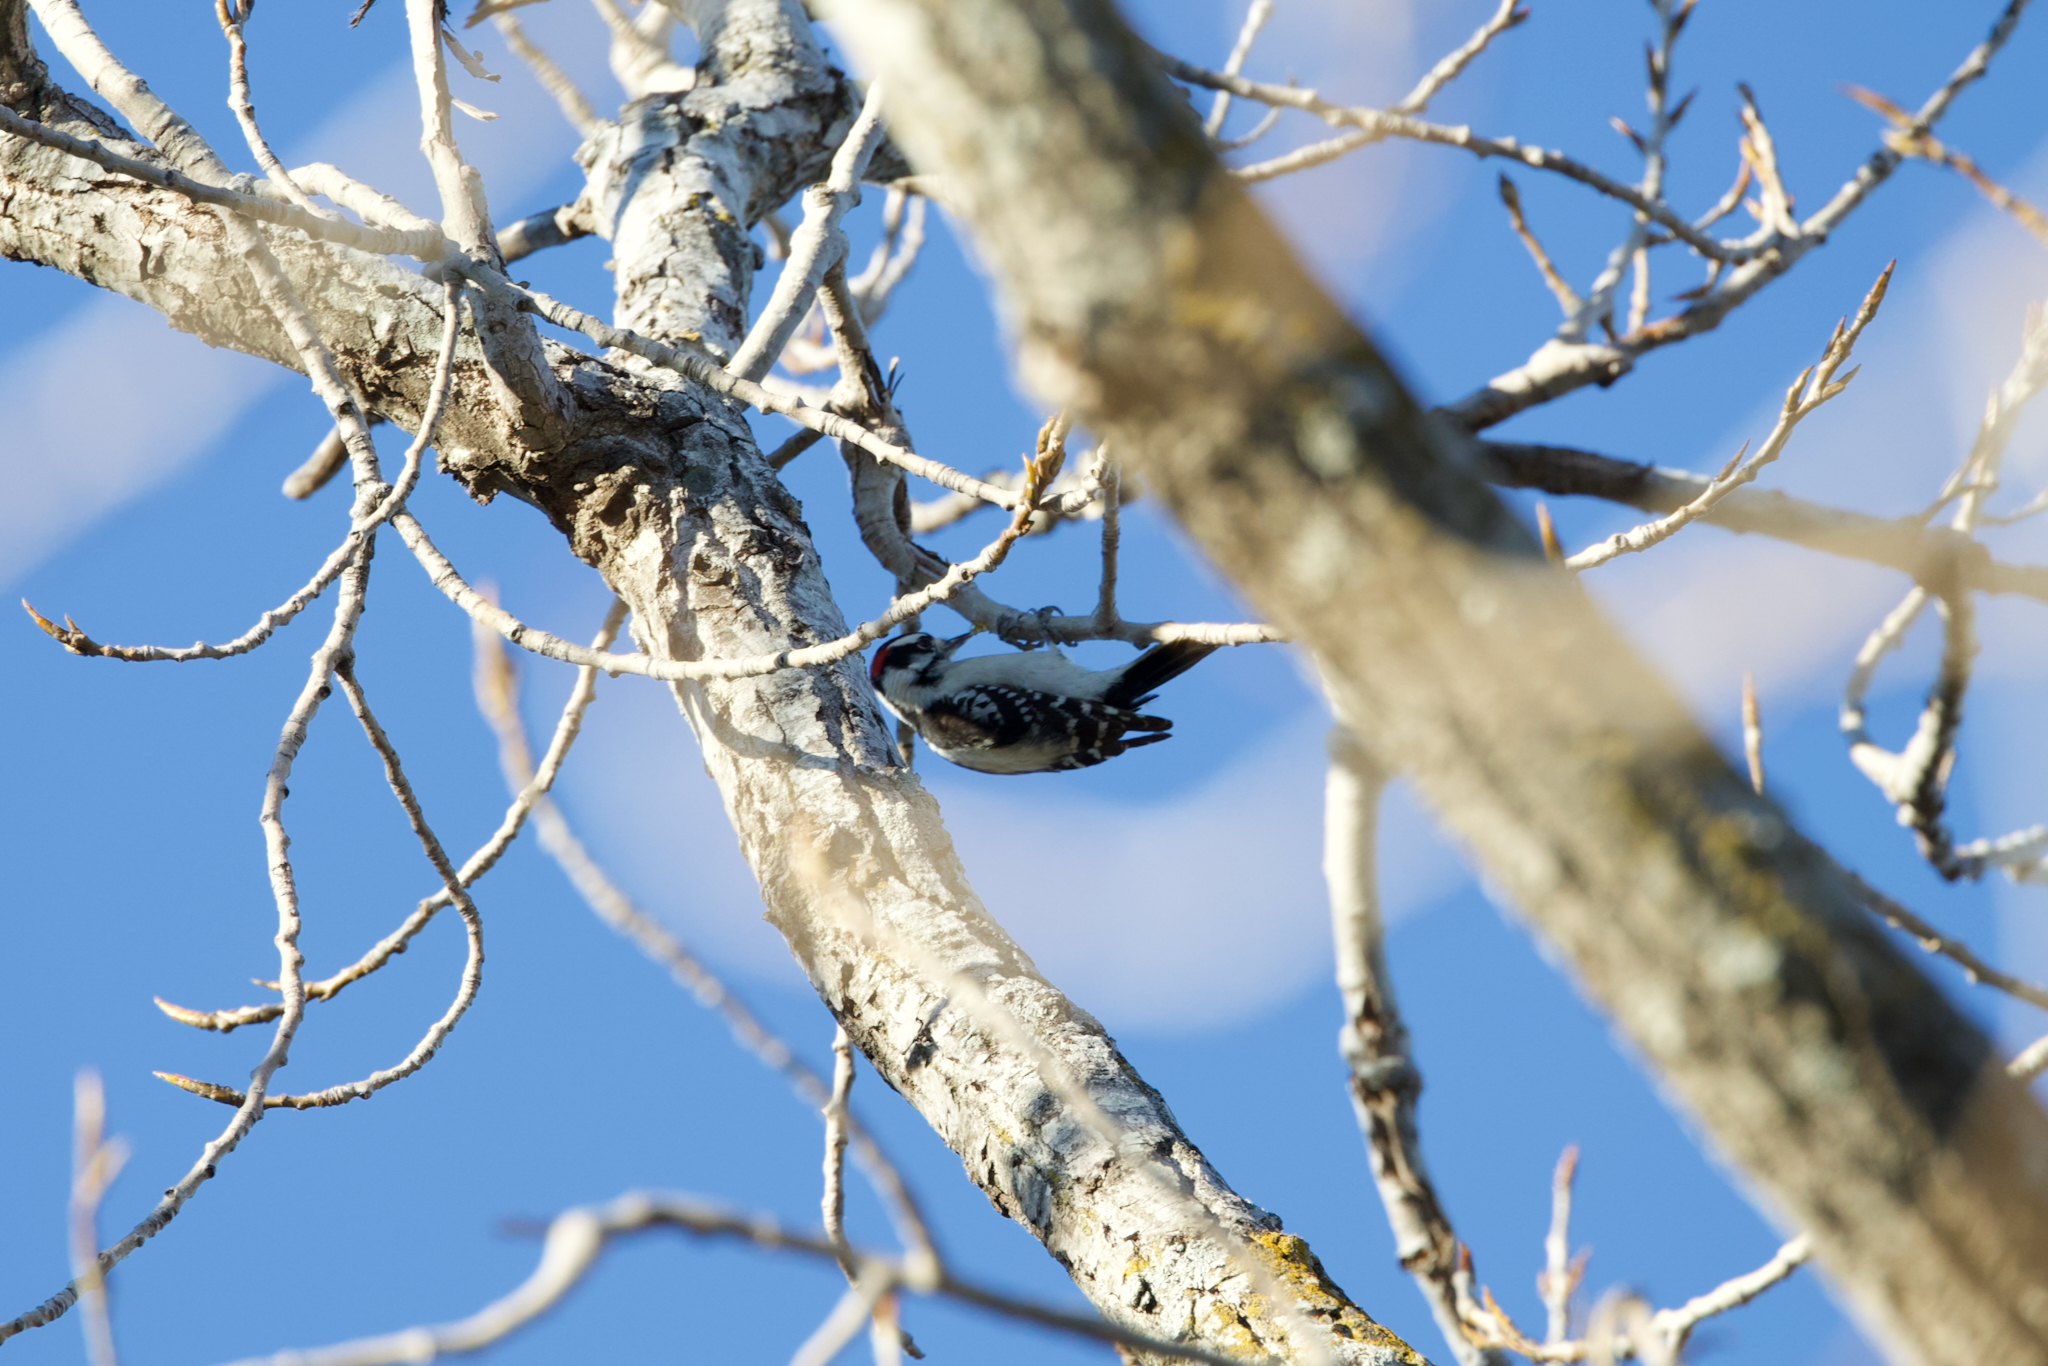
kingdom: Animalia
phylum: Chordata
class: Aves
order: Piciformes
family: Picidae
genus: Dryobates
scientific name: Dryobates pubescens
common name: Downy woodpecker
